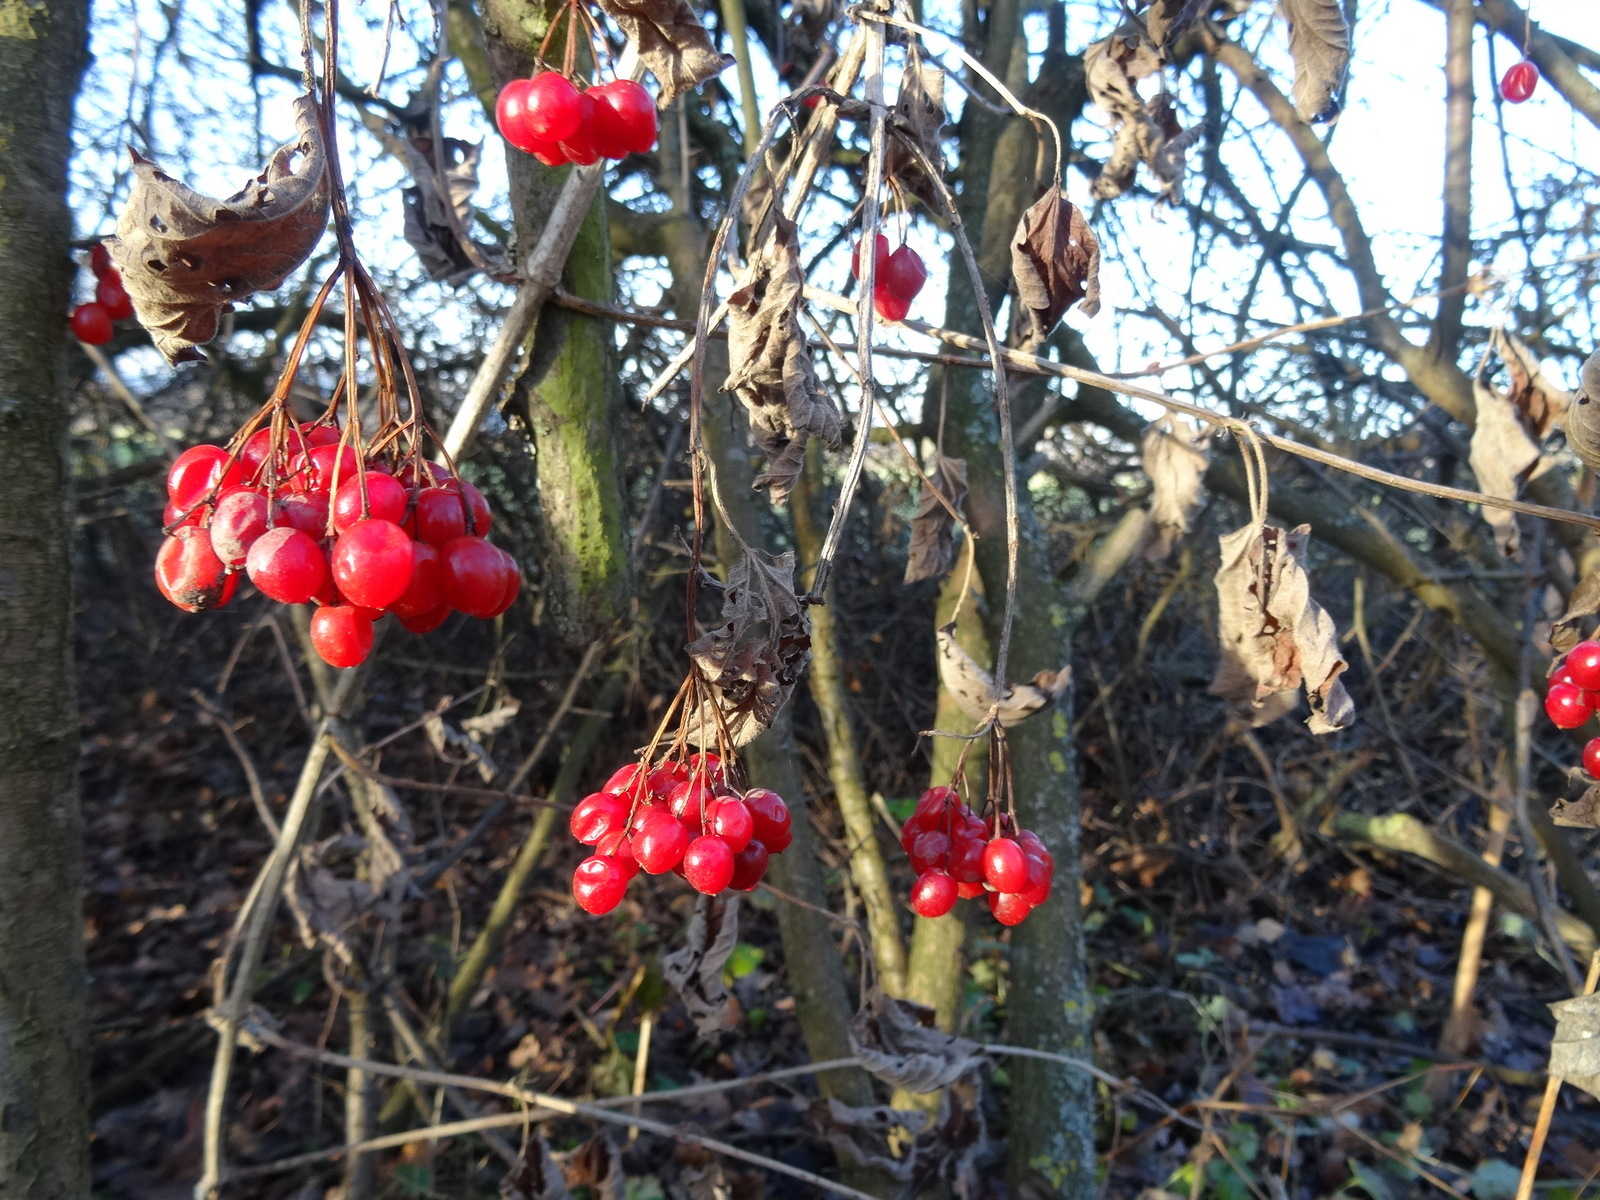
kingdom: Plantae
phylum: Tracheophyta
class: Magnoliopsida
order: Solanales
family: Solanaceae
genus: Solanum
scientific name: Solanum dulcamara
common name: Climbing nightshade
